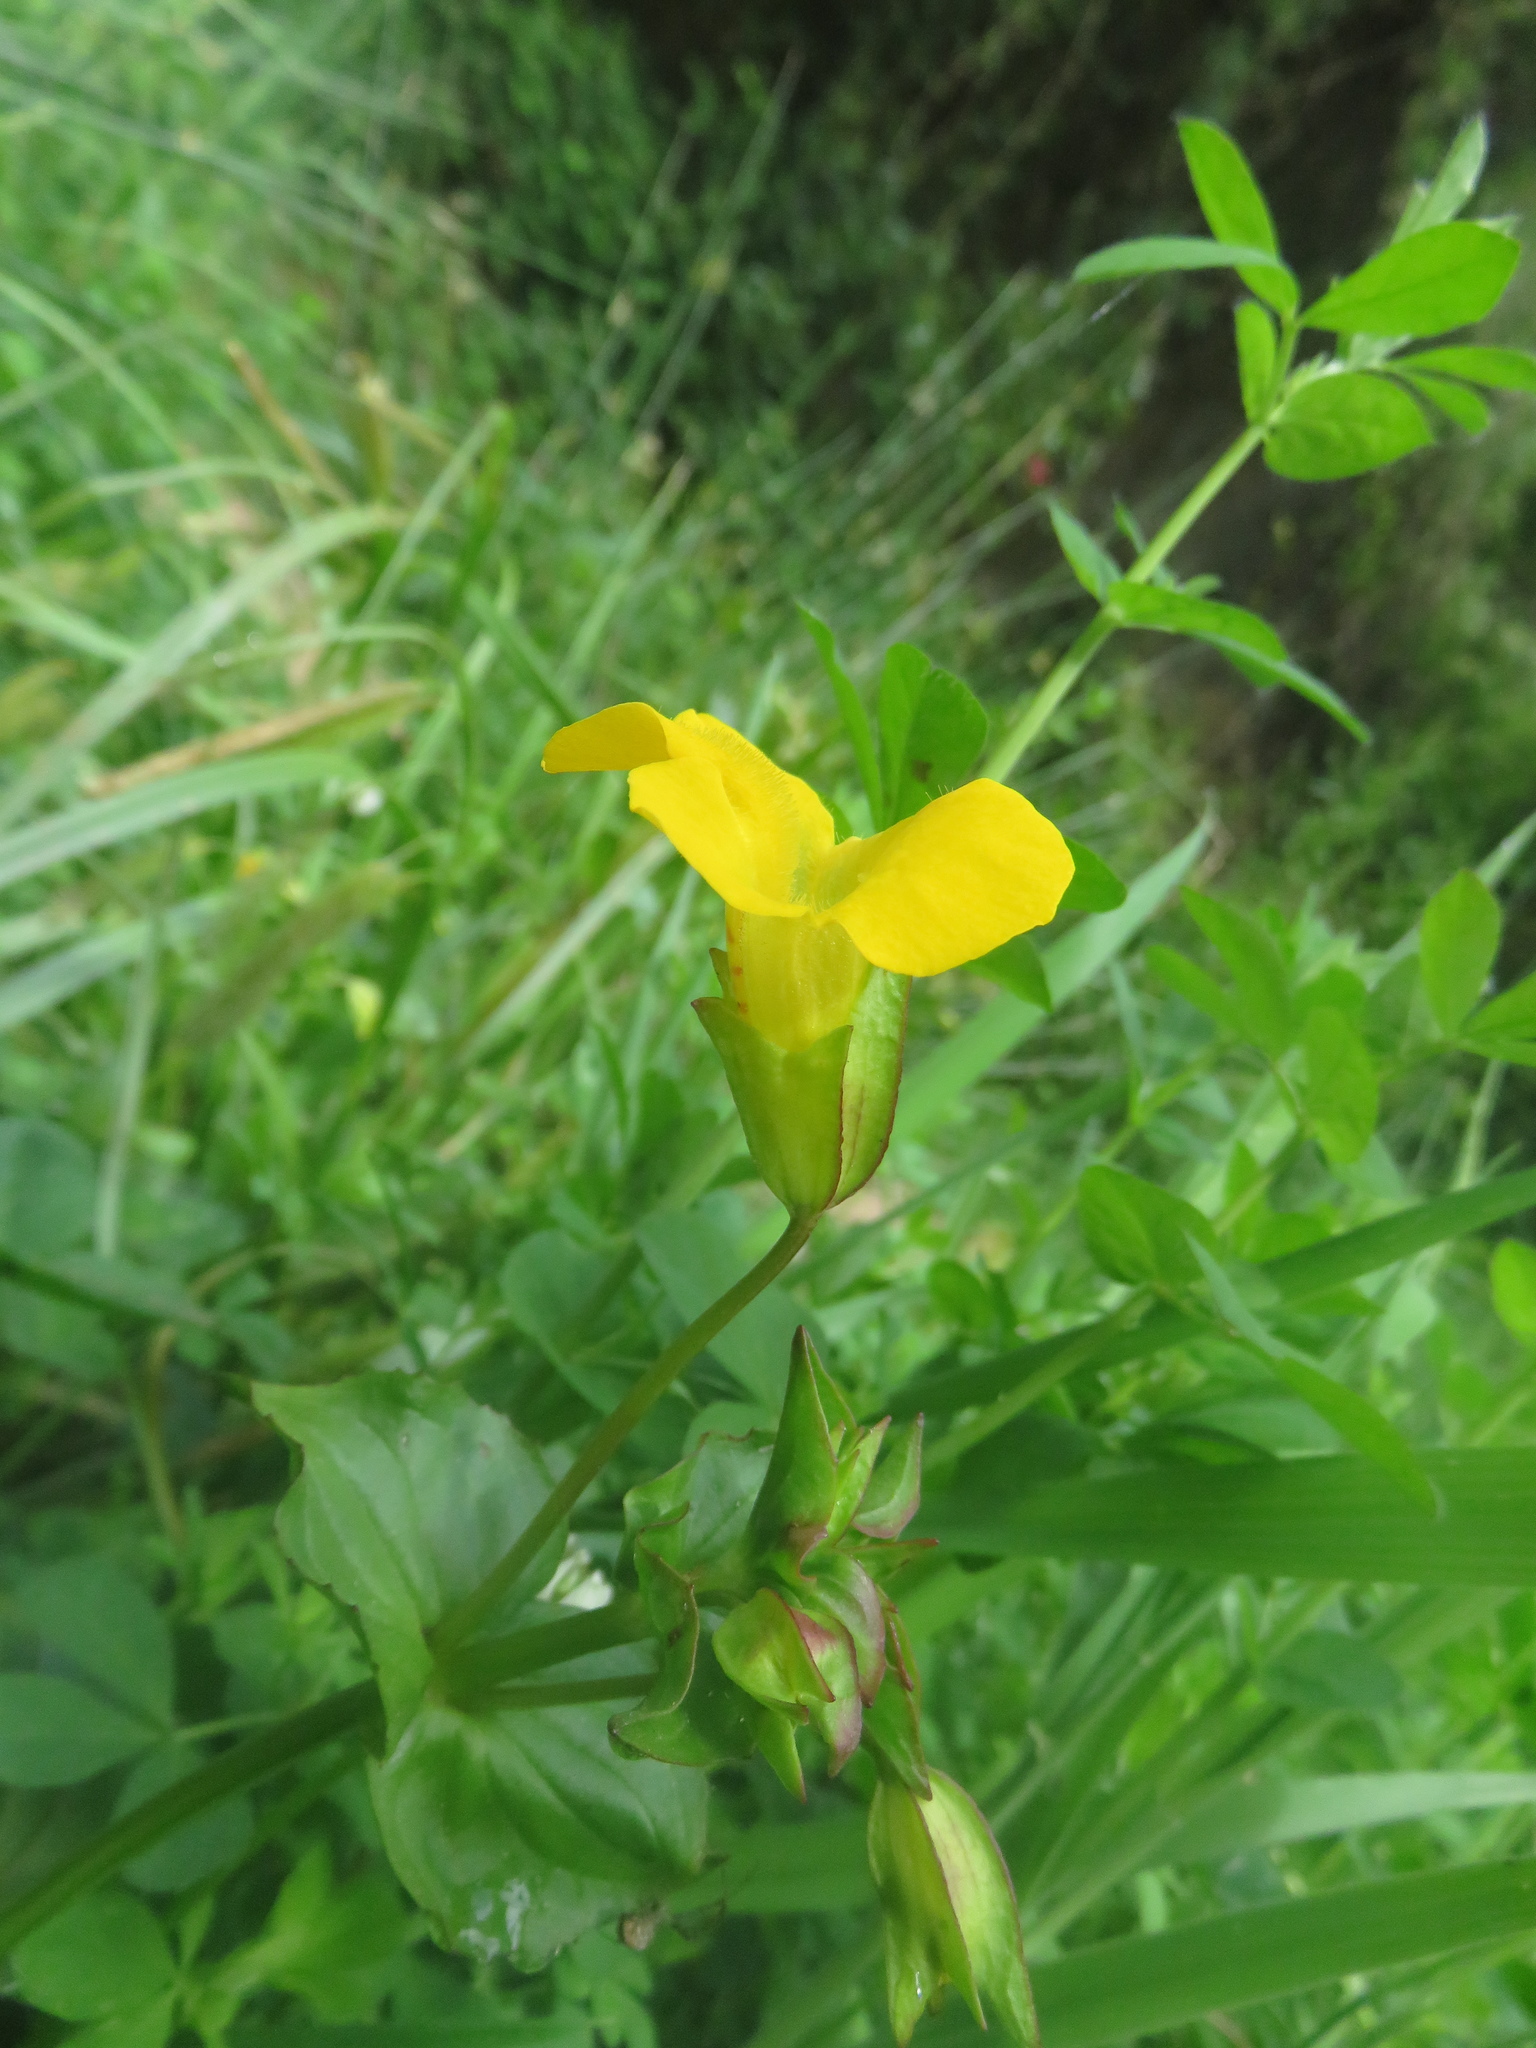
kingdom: Plantae
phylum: Tracheophyta
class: Magnoliopsida
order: Lamiales
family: Phrymaceae
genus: Erythranthe
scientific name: Erythranthe lutea
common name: Yellow monkey-flower
